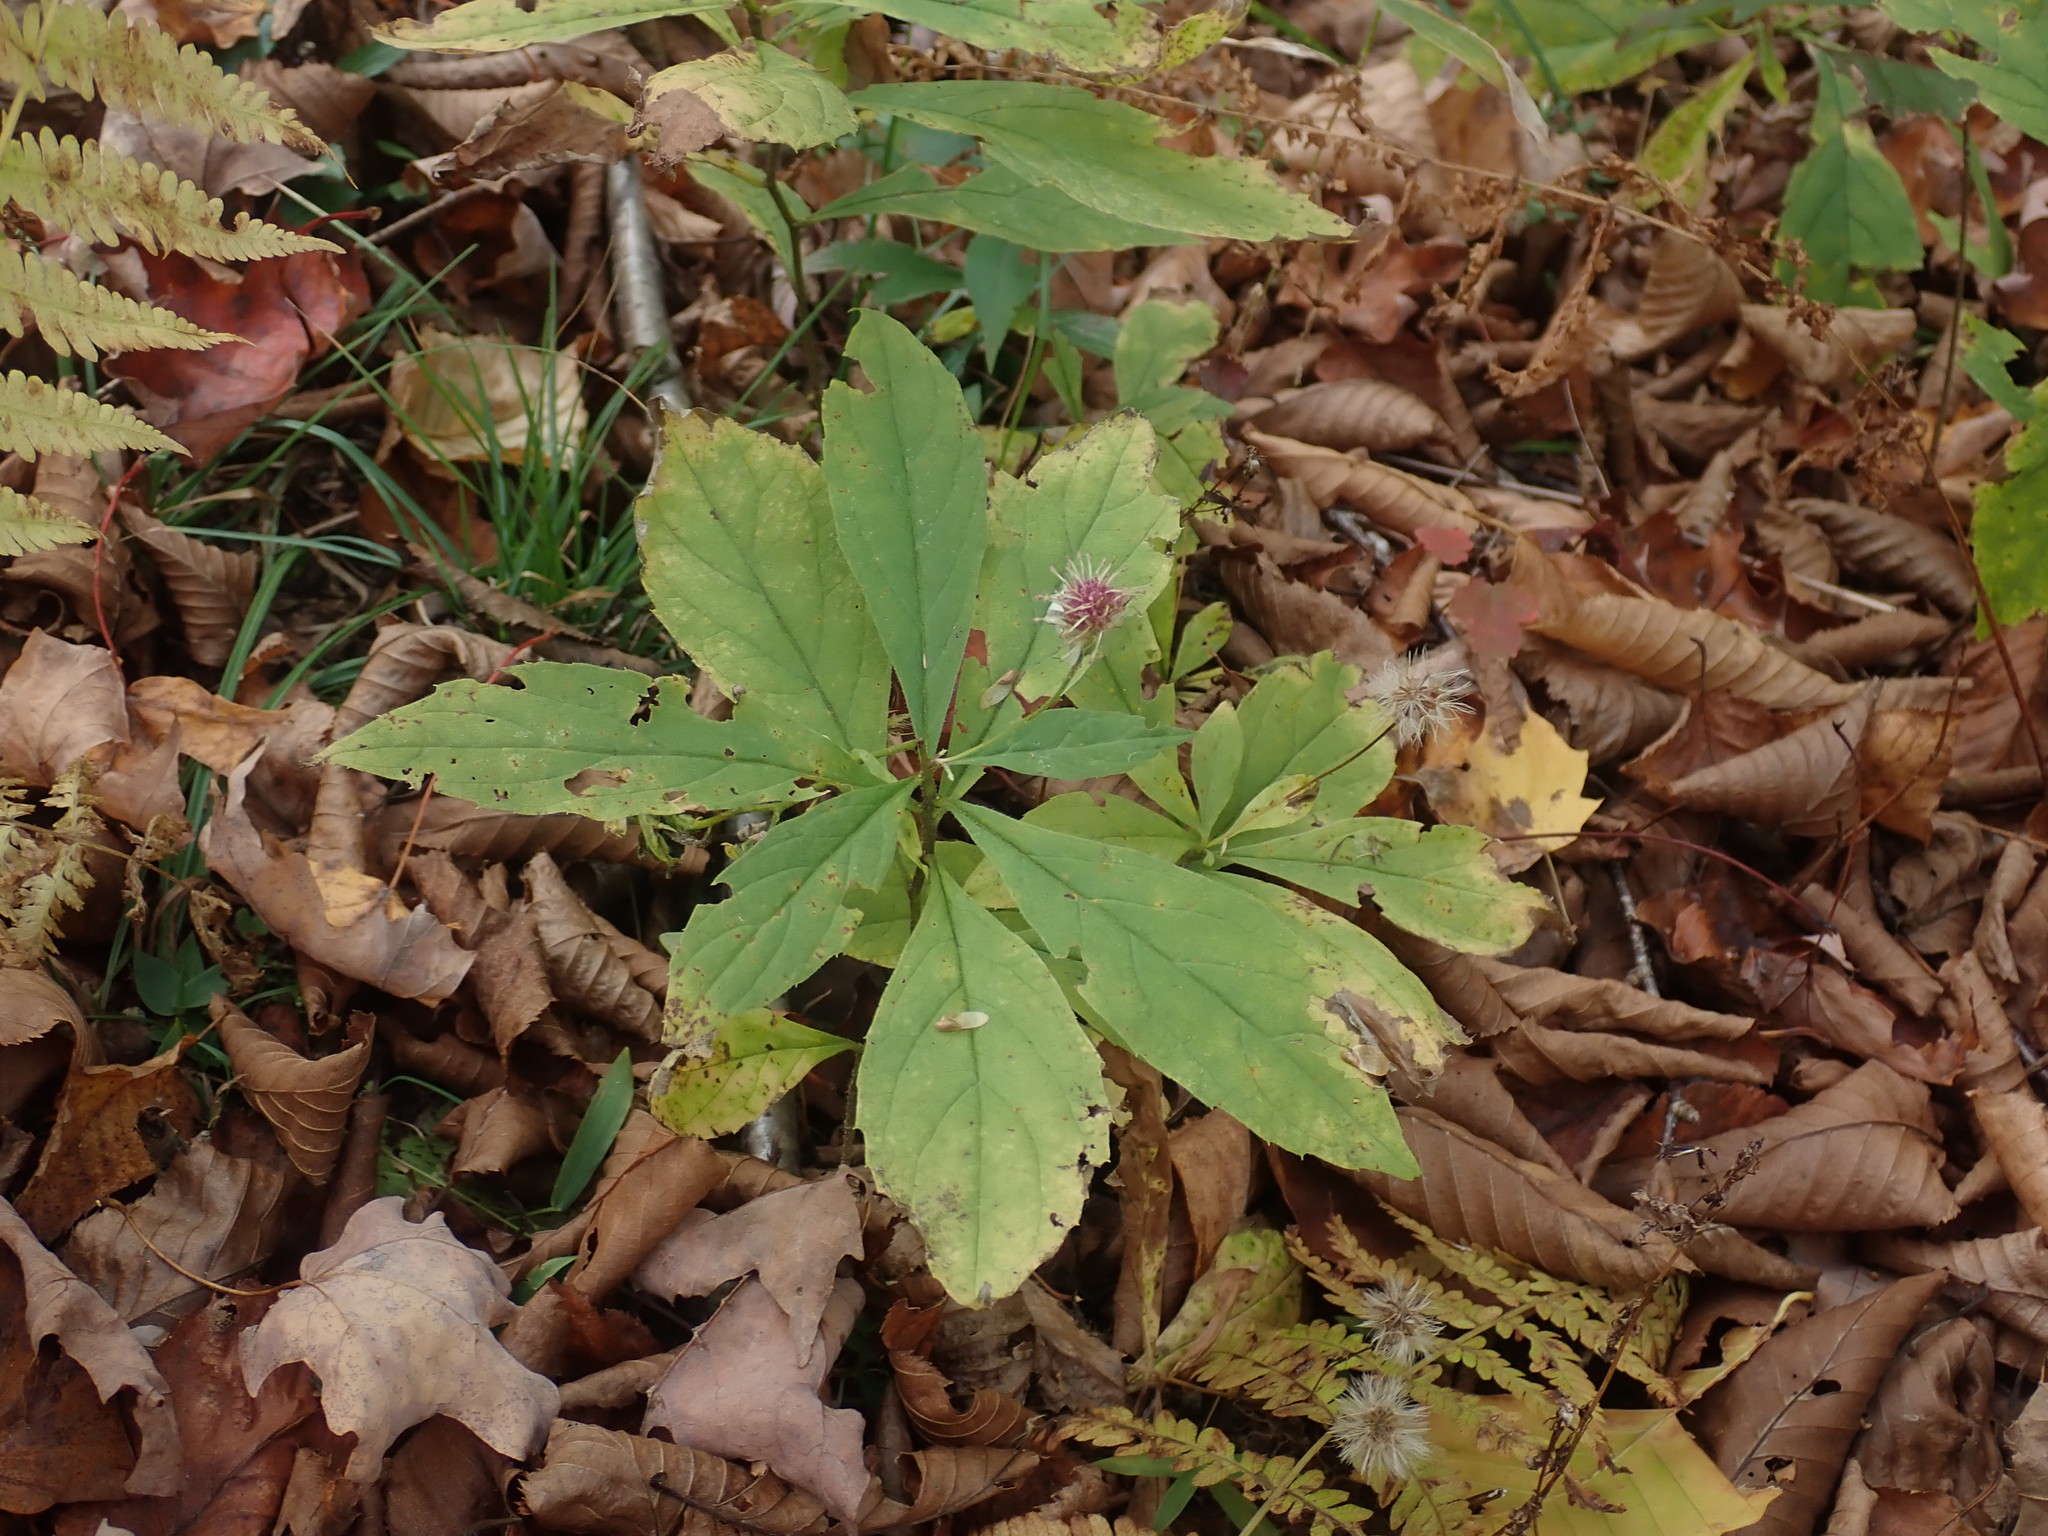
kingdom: Plantae
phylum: Tracheophyta
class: Magnoliopsida
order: Asterales
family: Asteraceae
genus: Oclemena
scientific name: Oclemena acuminata
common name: Mountain aster
